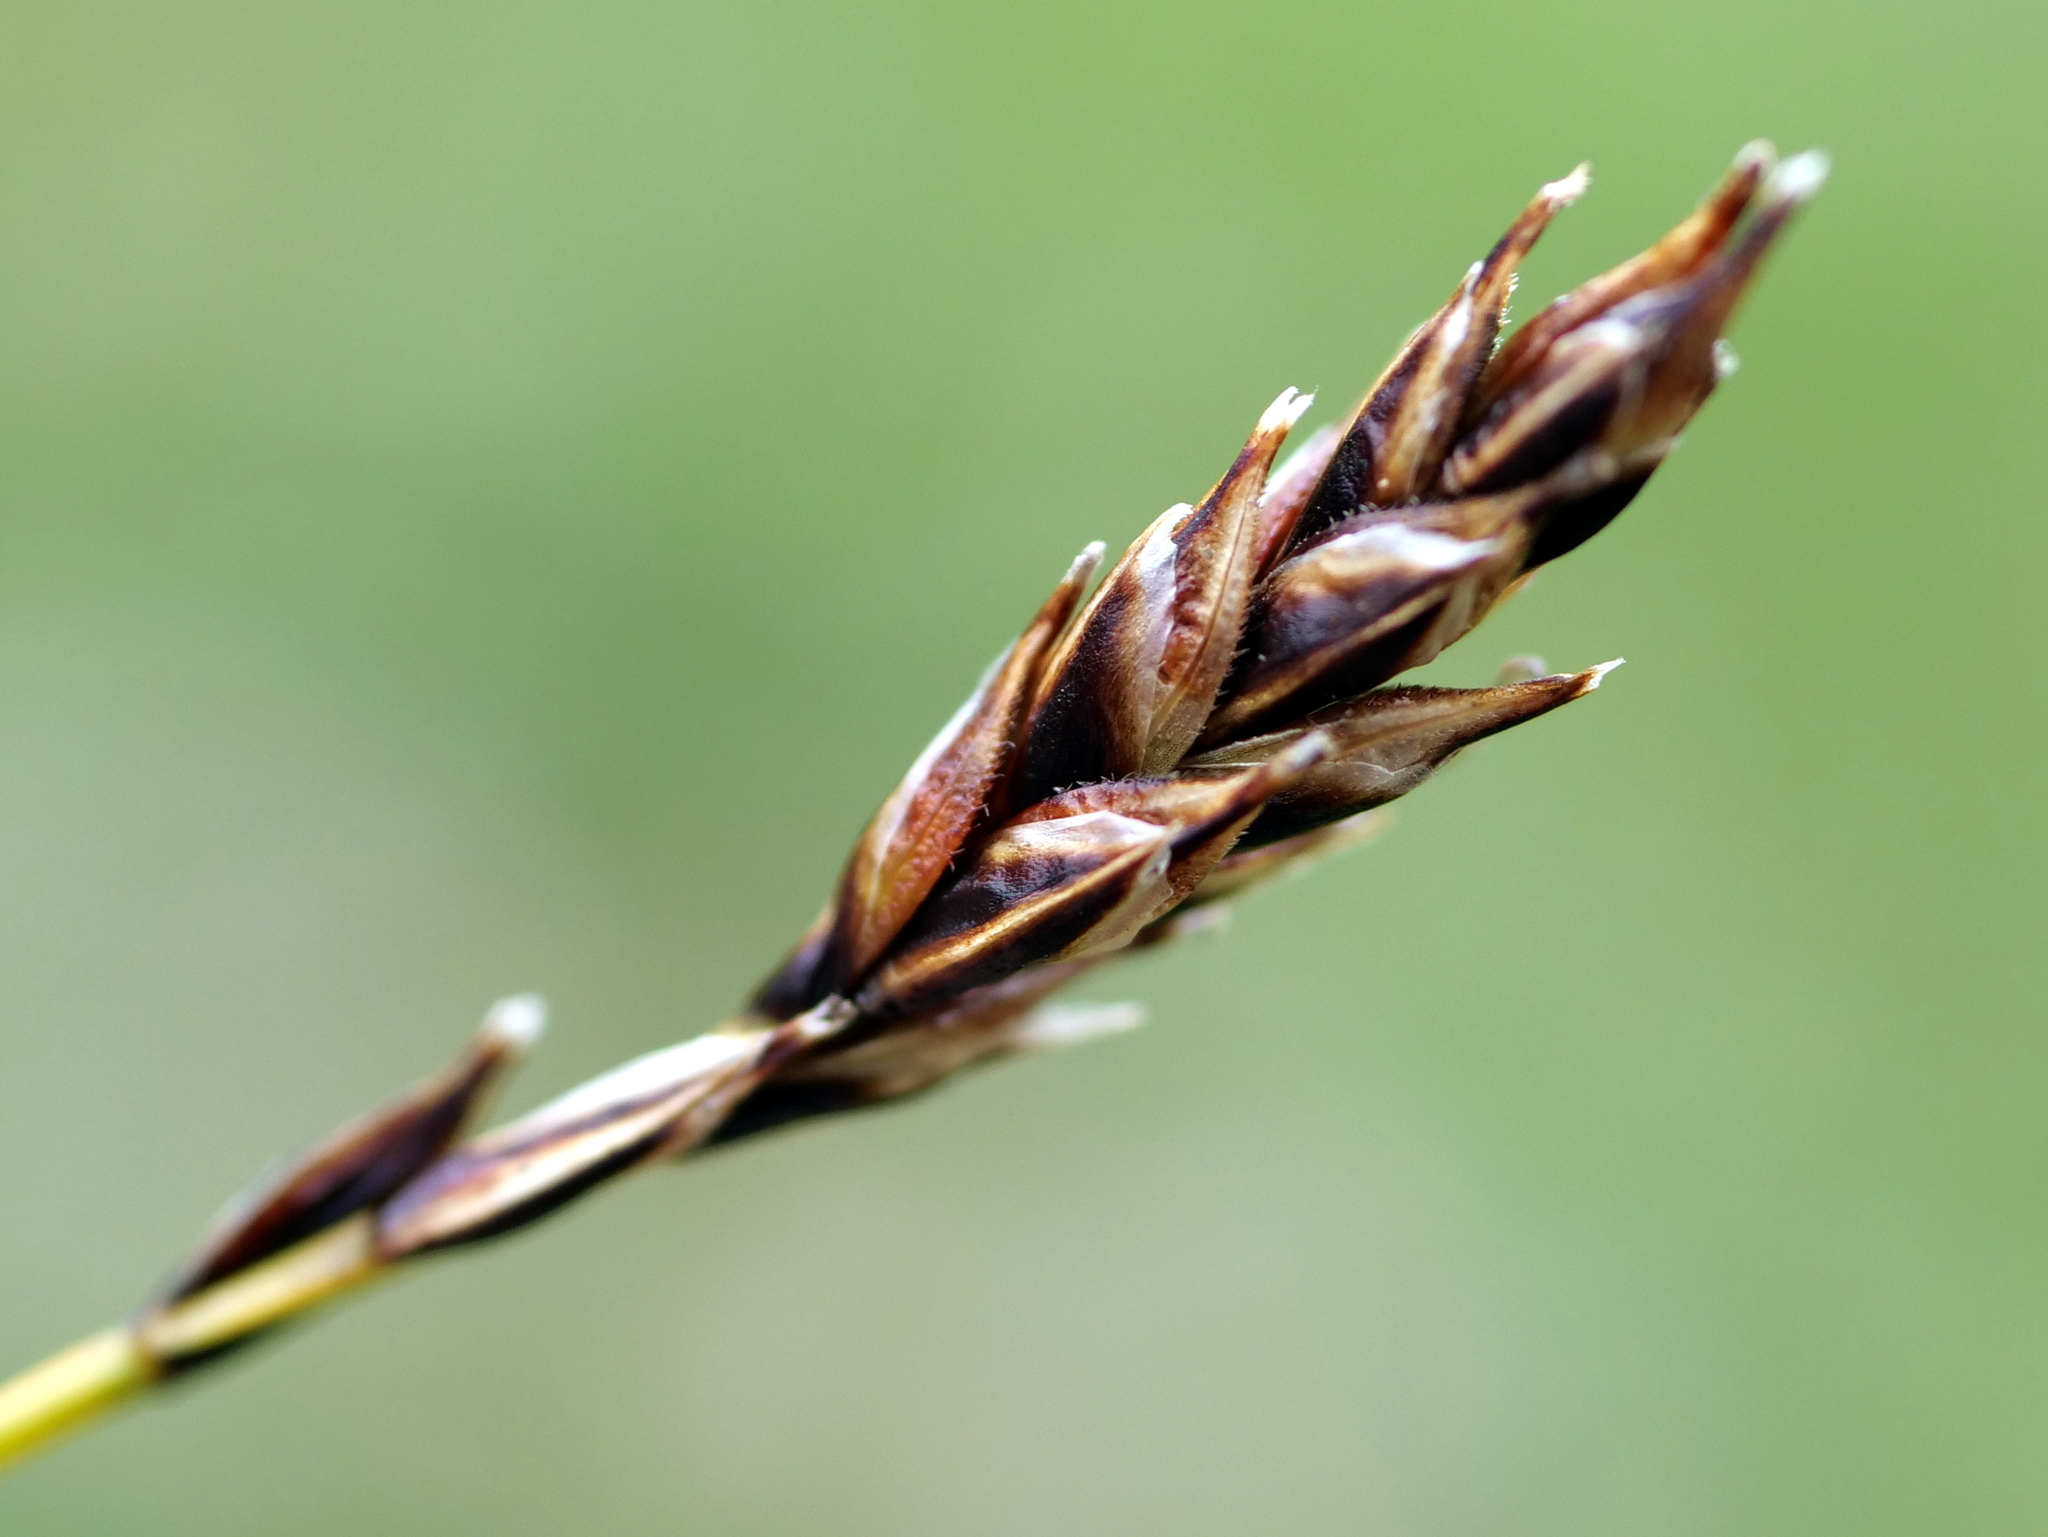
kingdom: Plantae
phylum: Tracheophyta
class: Liliopsida
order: Poales
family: Cyperaceae
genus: Carex
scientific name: Carex sempervirens
